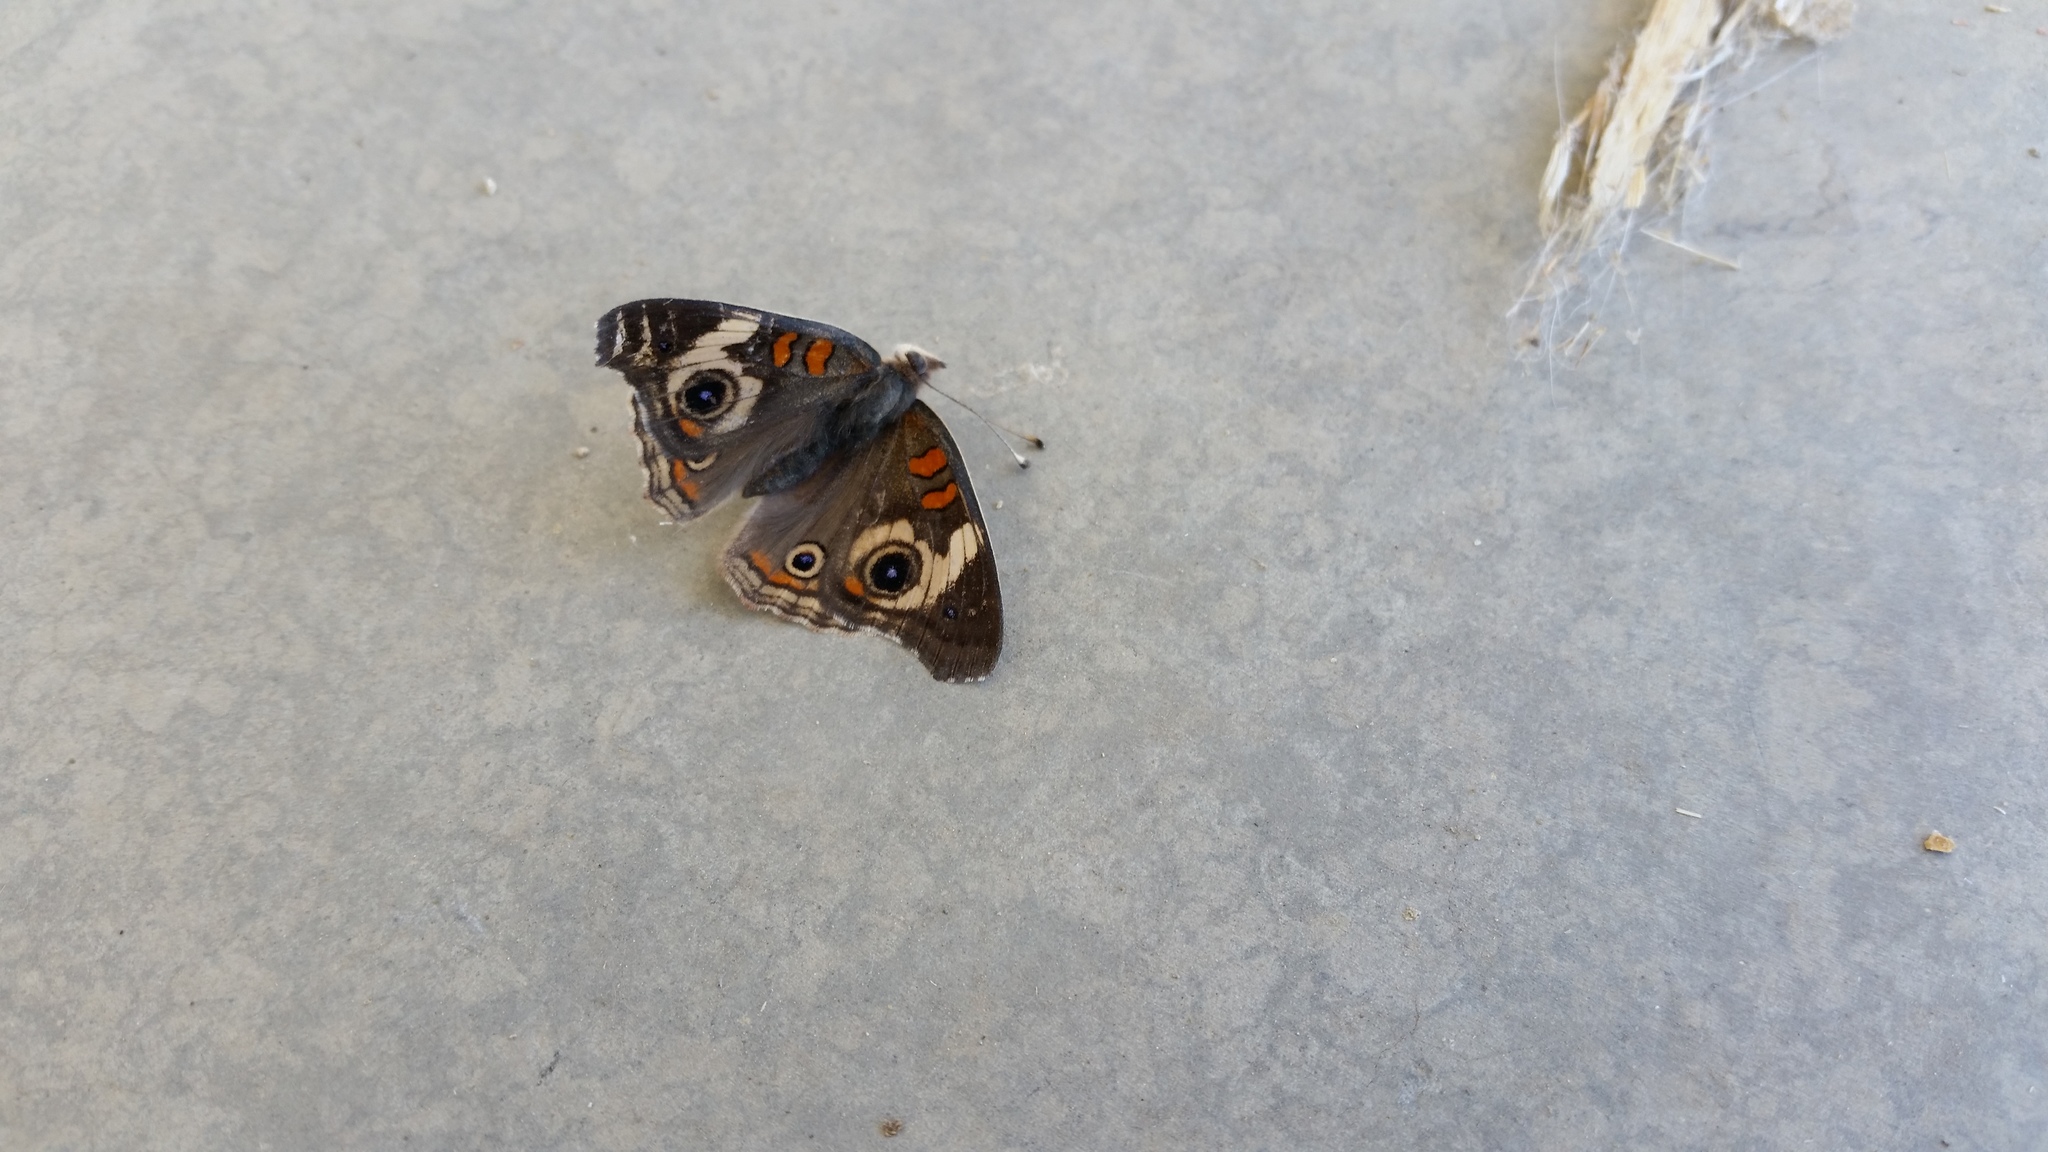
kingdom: Animalia
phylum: Arthropoda
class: Insecta
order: Lepidoptera
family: Nymphalidae
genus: Junonia
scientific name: Junonia grisea
